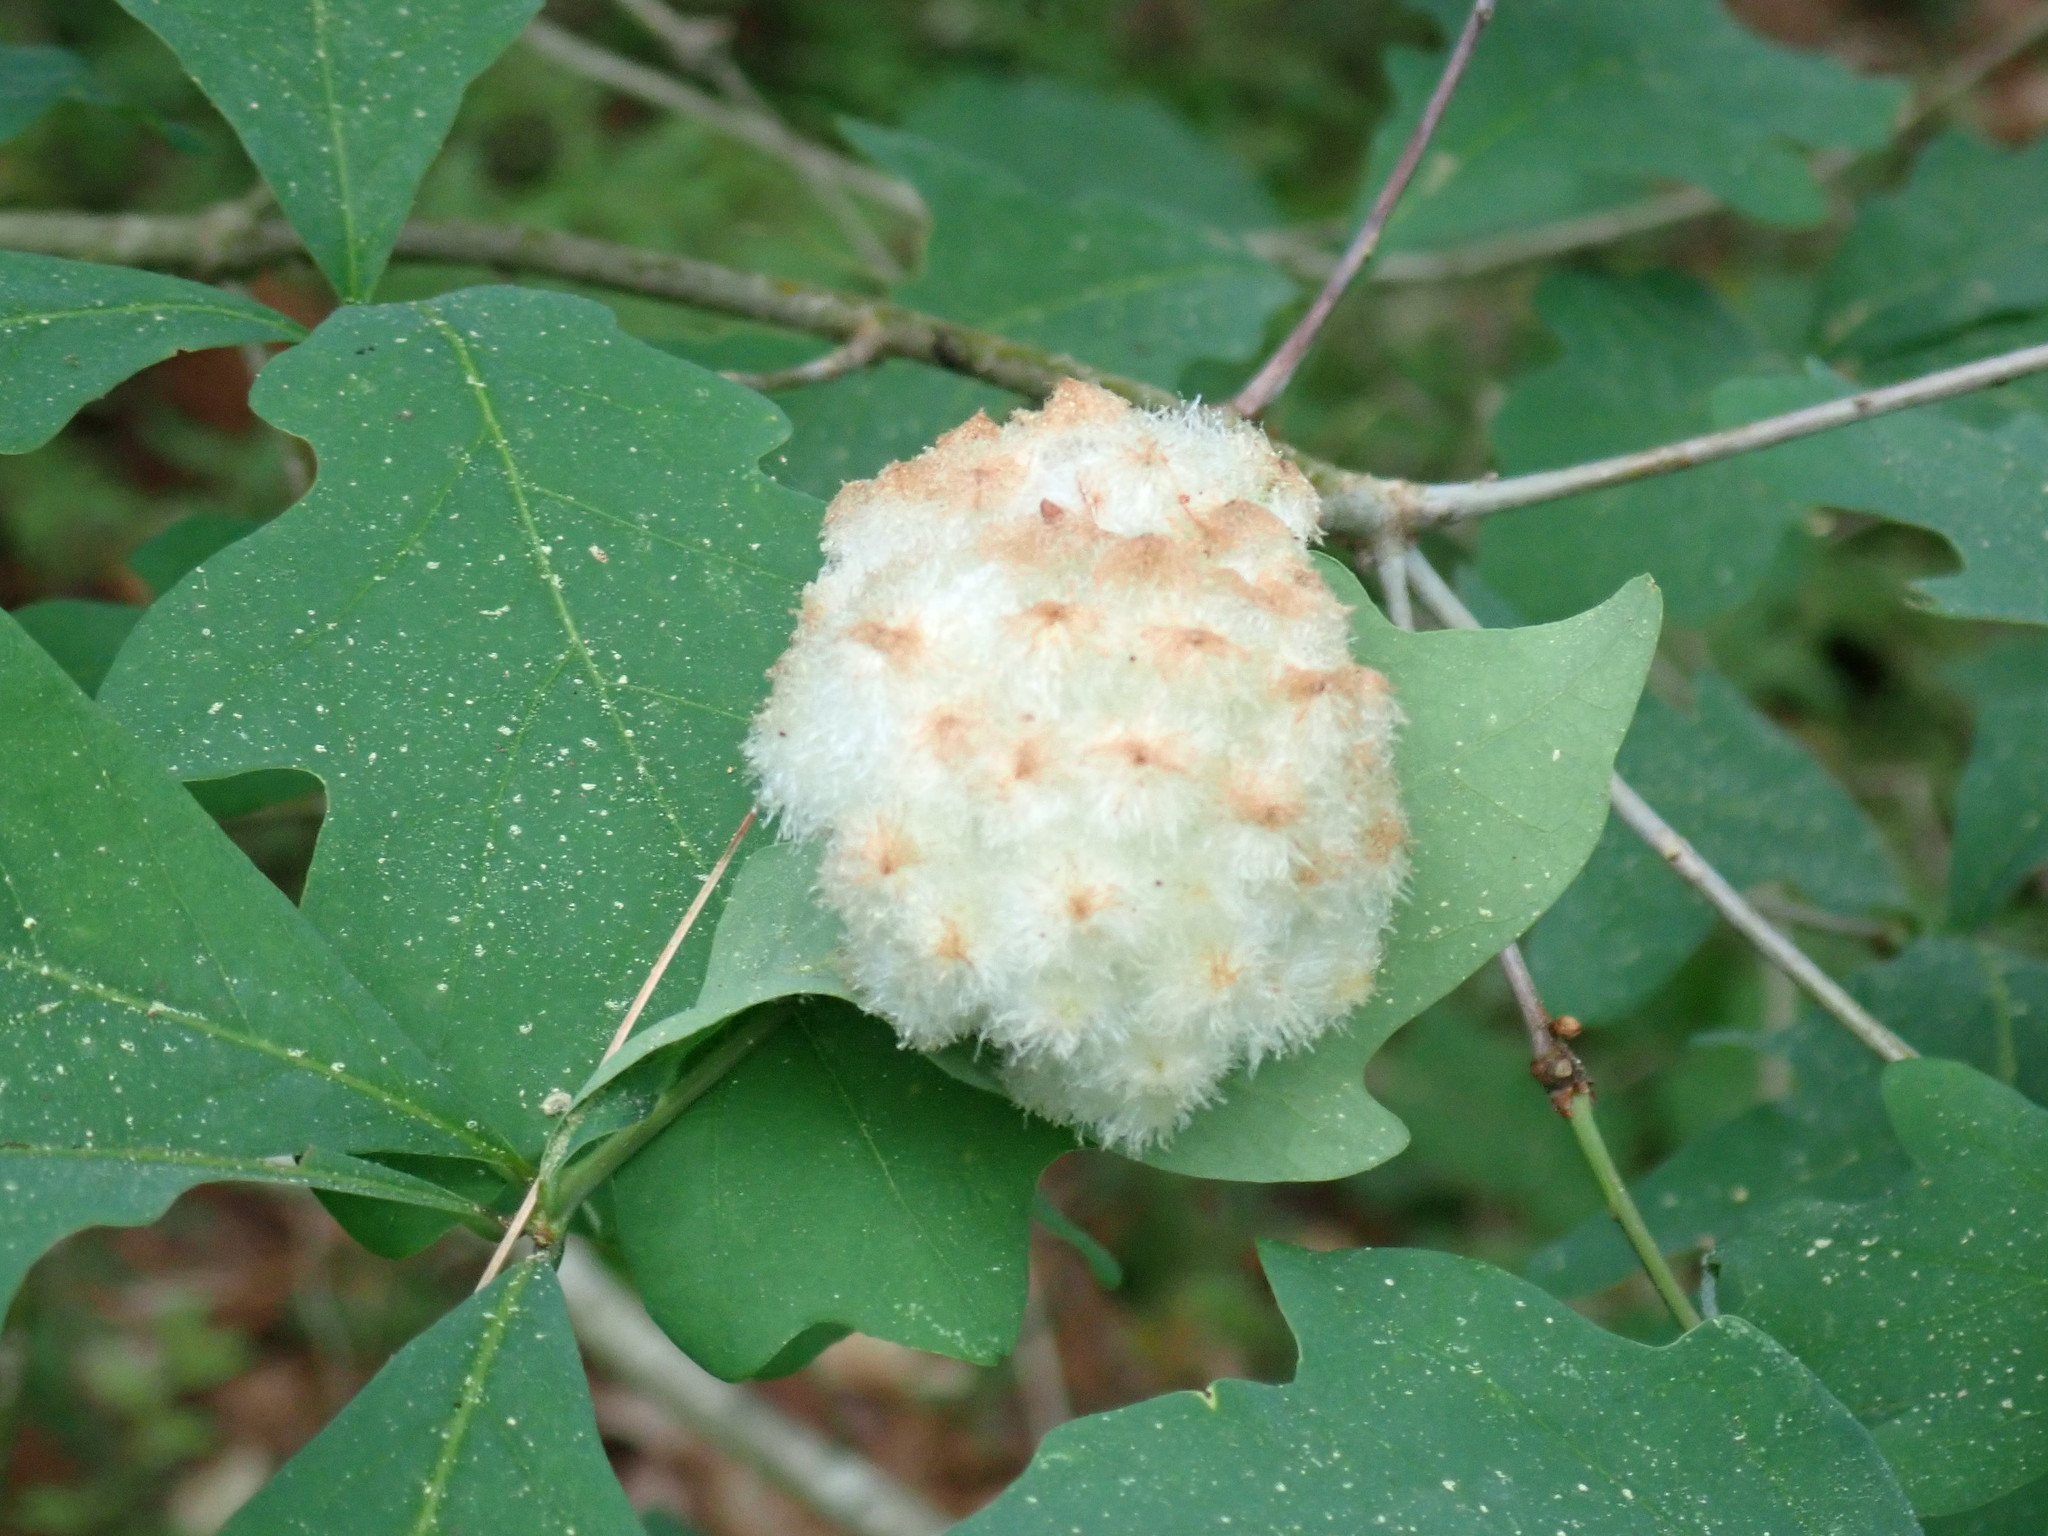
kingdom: Animalia
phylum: Arthropoda
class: Insecta
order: Hymenoptera
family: Cynipidae
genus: Callirhytis
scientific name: Callirhytis
